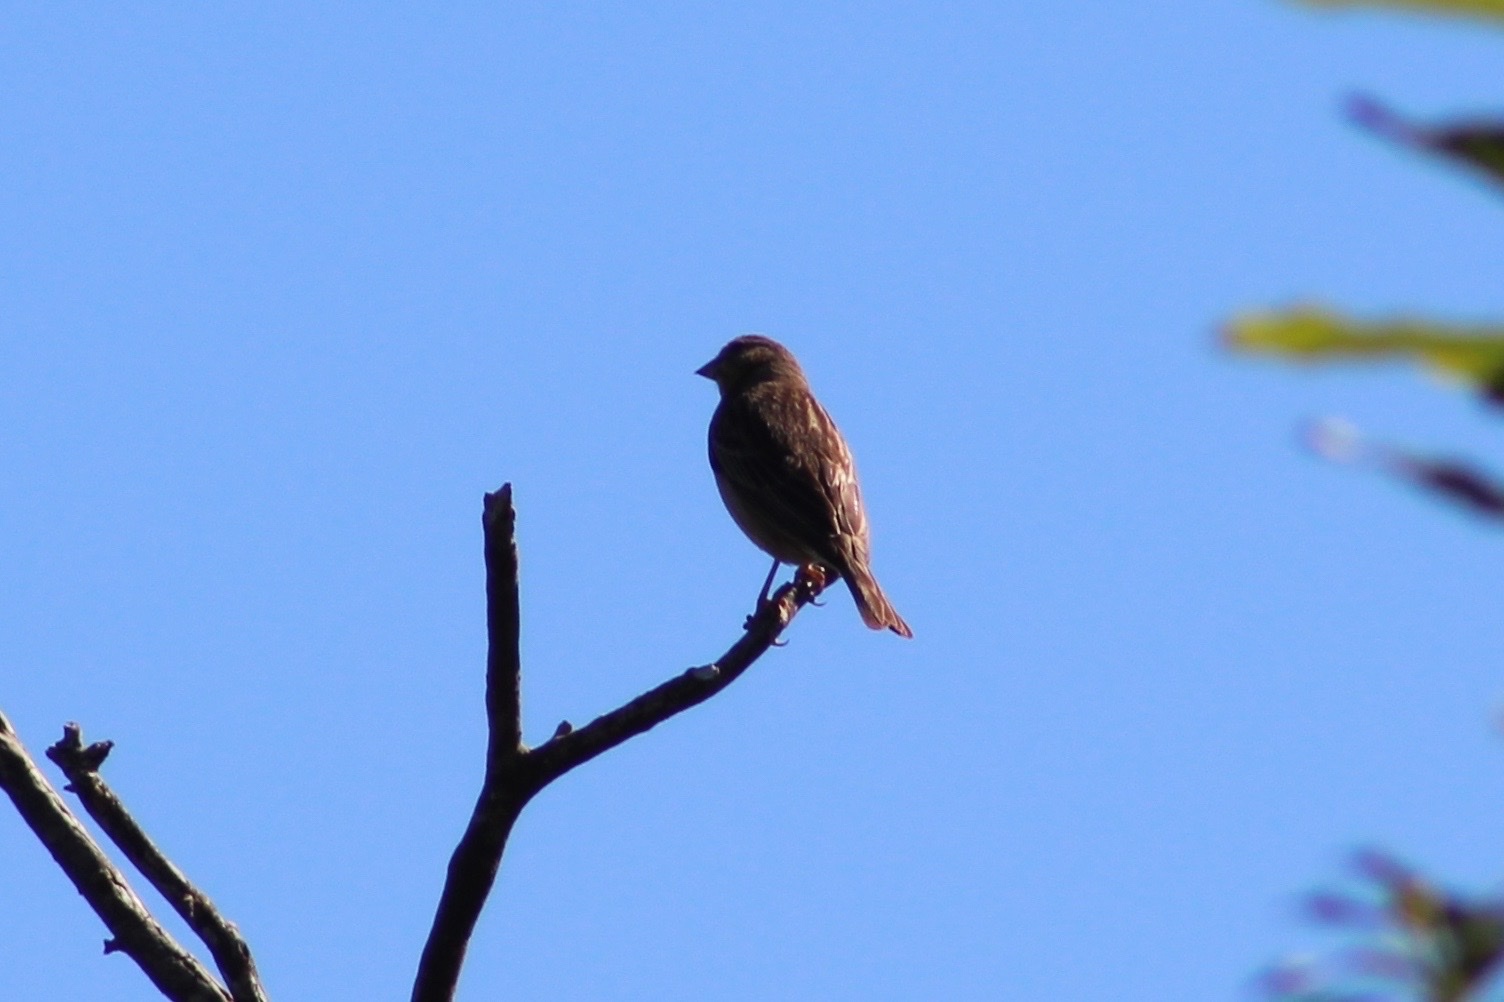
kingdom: Animalia
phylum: Chordata
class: Aves
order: Passeriformes
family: Passeridae
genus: Passer
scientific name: Passer domesticus
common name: House sparrow
